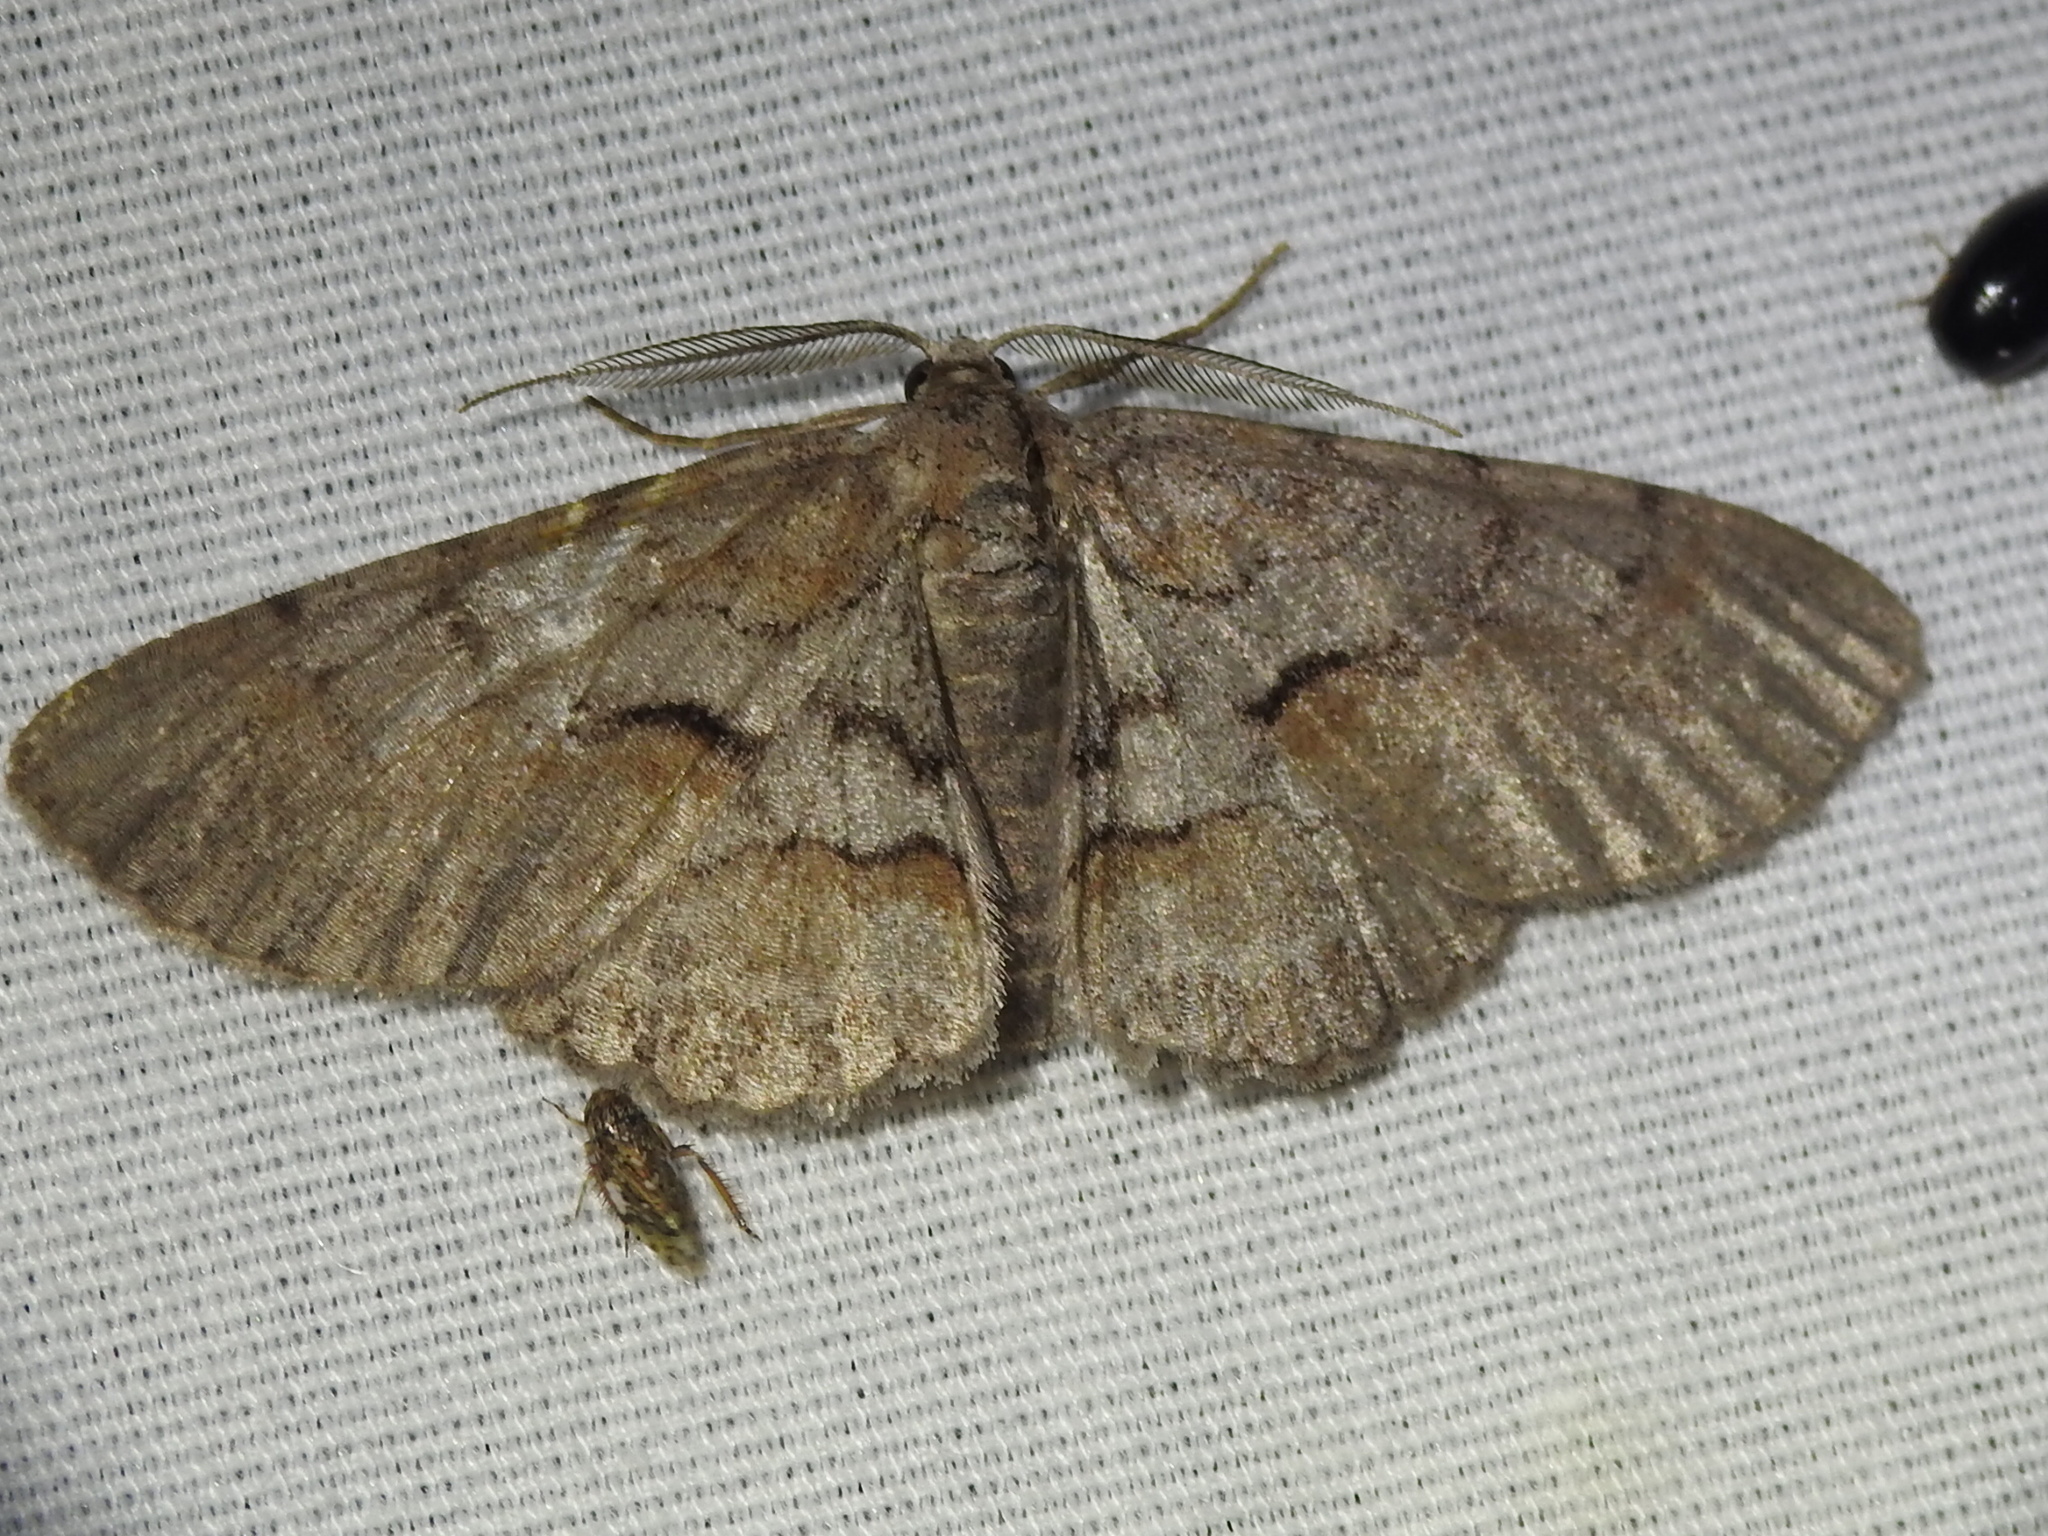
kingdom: Animalia
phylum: Arthropoda
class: Insecta
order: Lepidoptera
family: Geometridae
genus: Iridopsis
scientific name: Iridopsis vellivolata
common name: Large purplish gray
